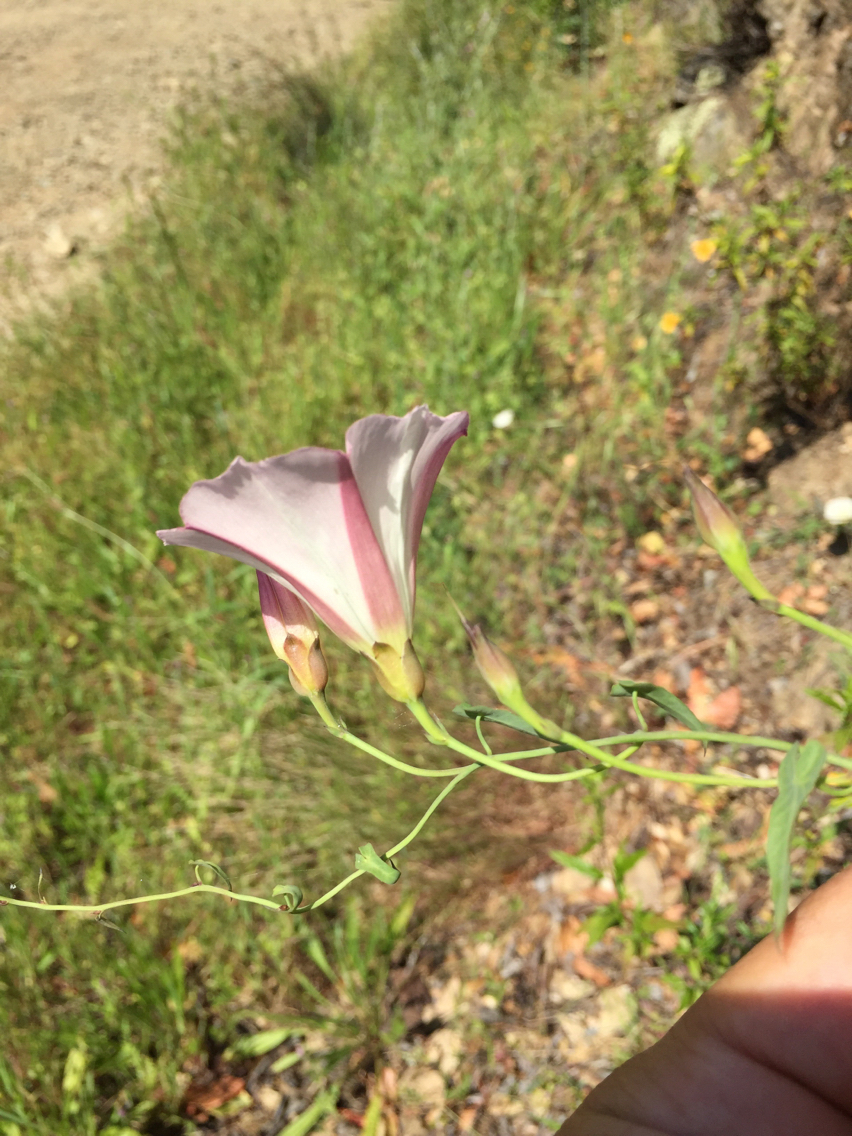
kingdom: Plantae
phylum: Tracheophyta
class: Magnoliopsida
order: Solanales
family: Convolvulaceae
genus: Calystegia
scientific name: Calystegia purpurata
